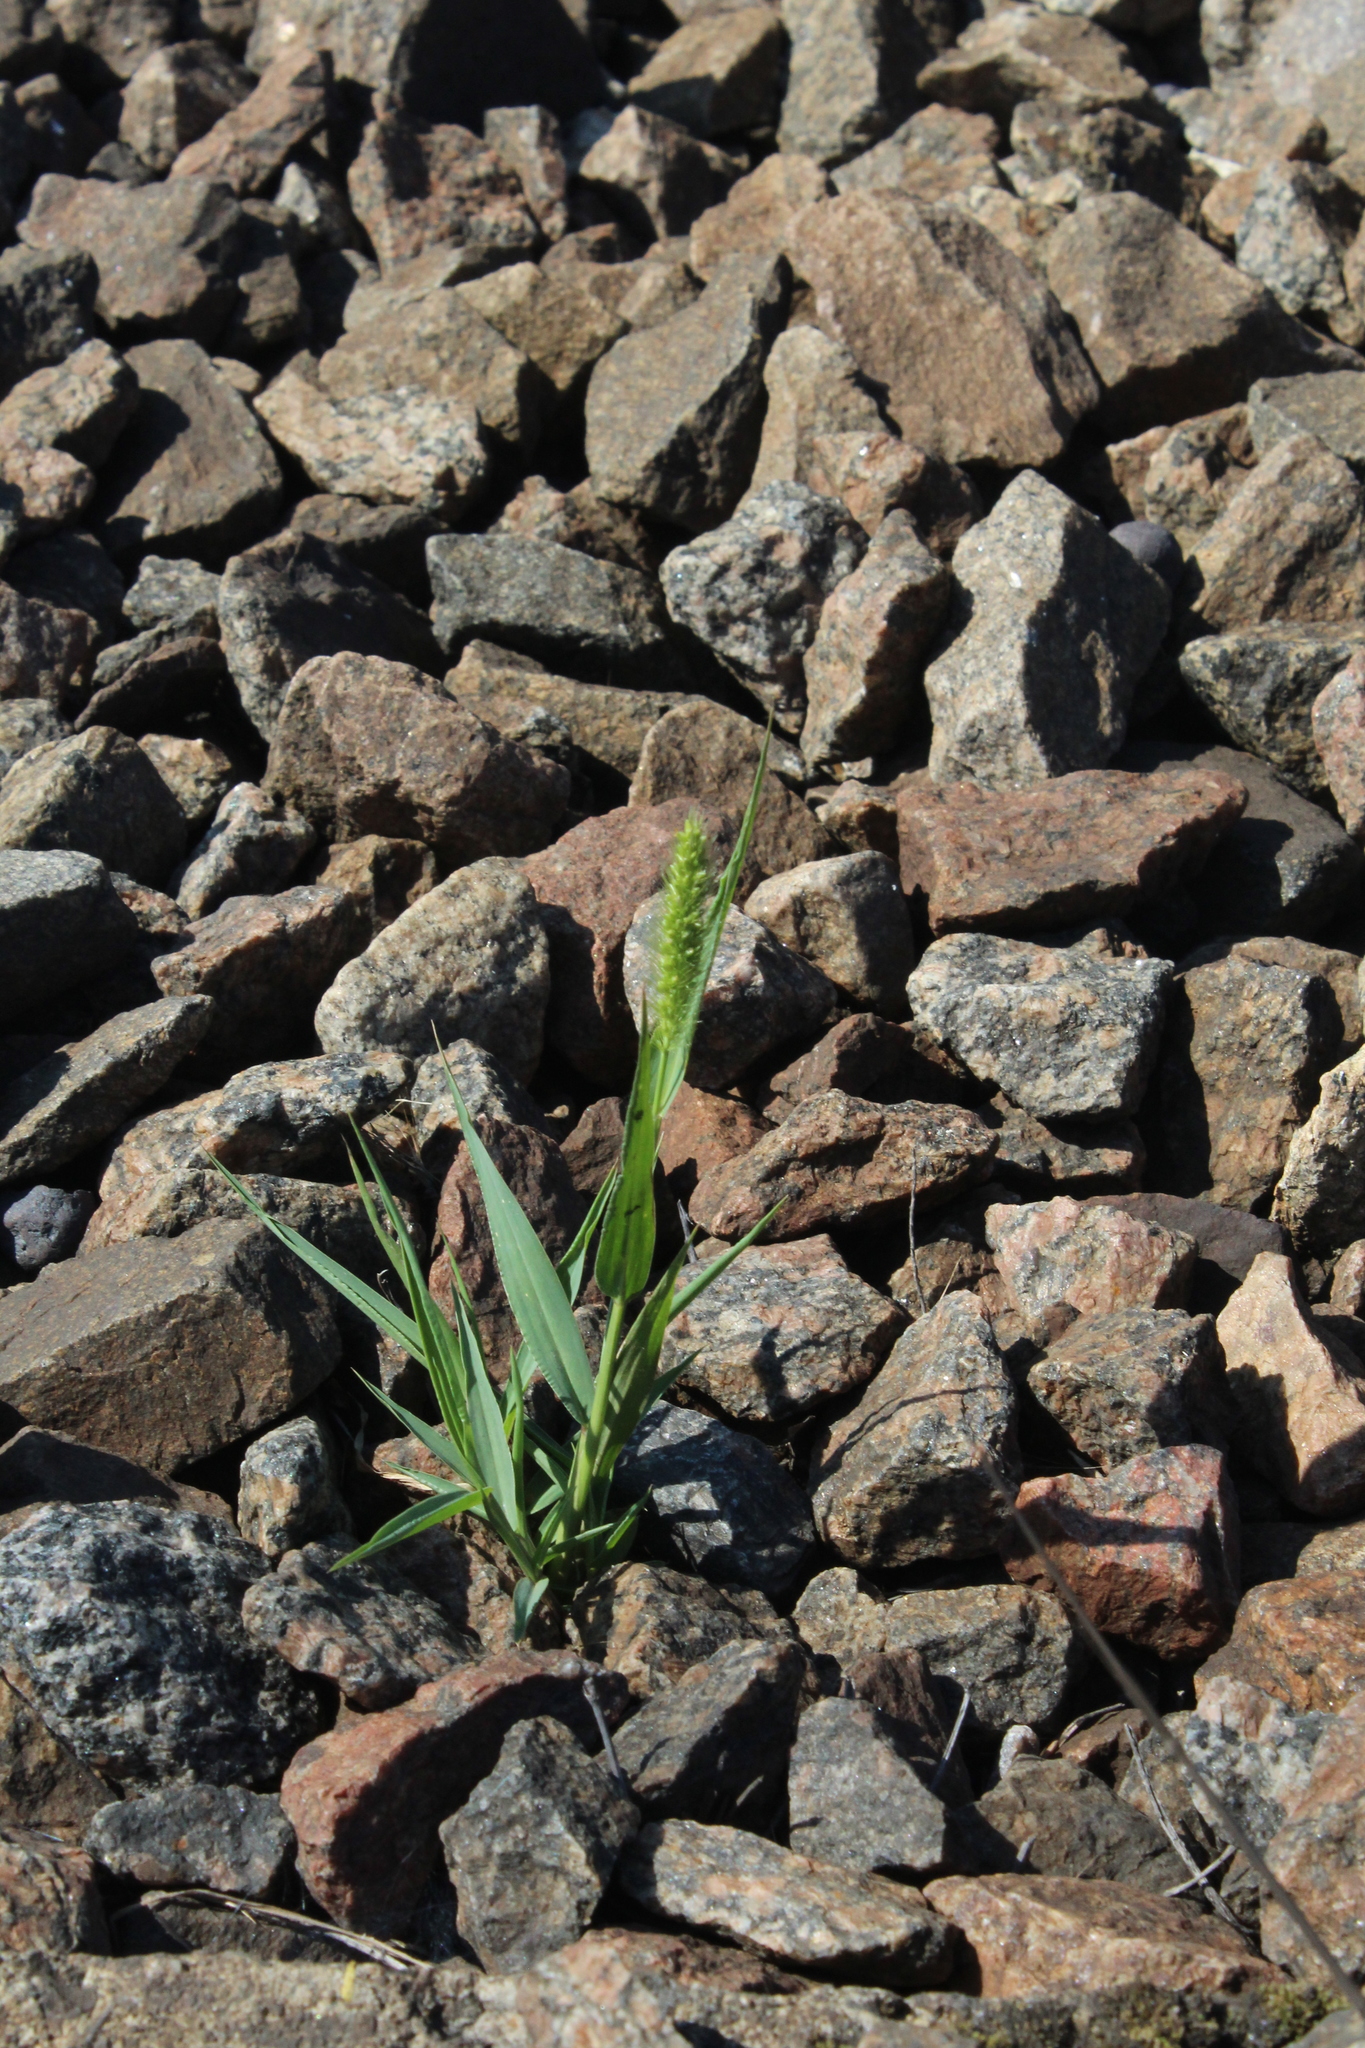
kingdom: Plantae
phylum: Tracheophyta
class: Liliopsida
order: Poales
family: Poaceae
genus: Setaria
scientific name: Setaria viridis
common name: Green bristlegrass
